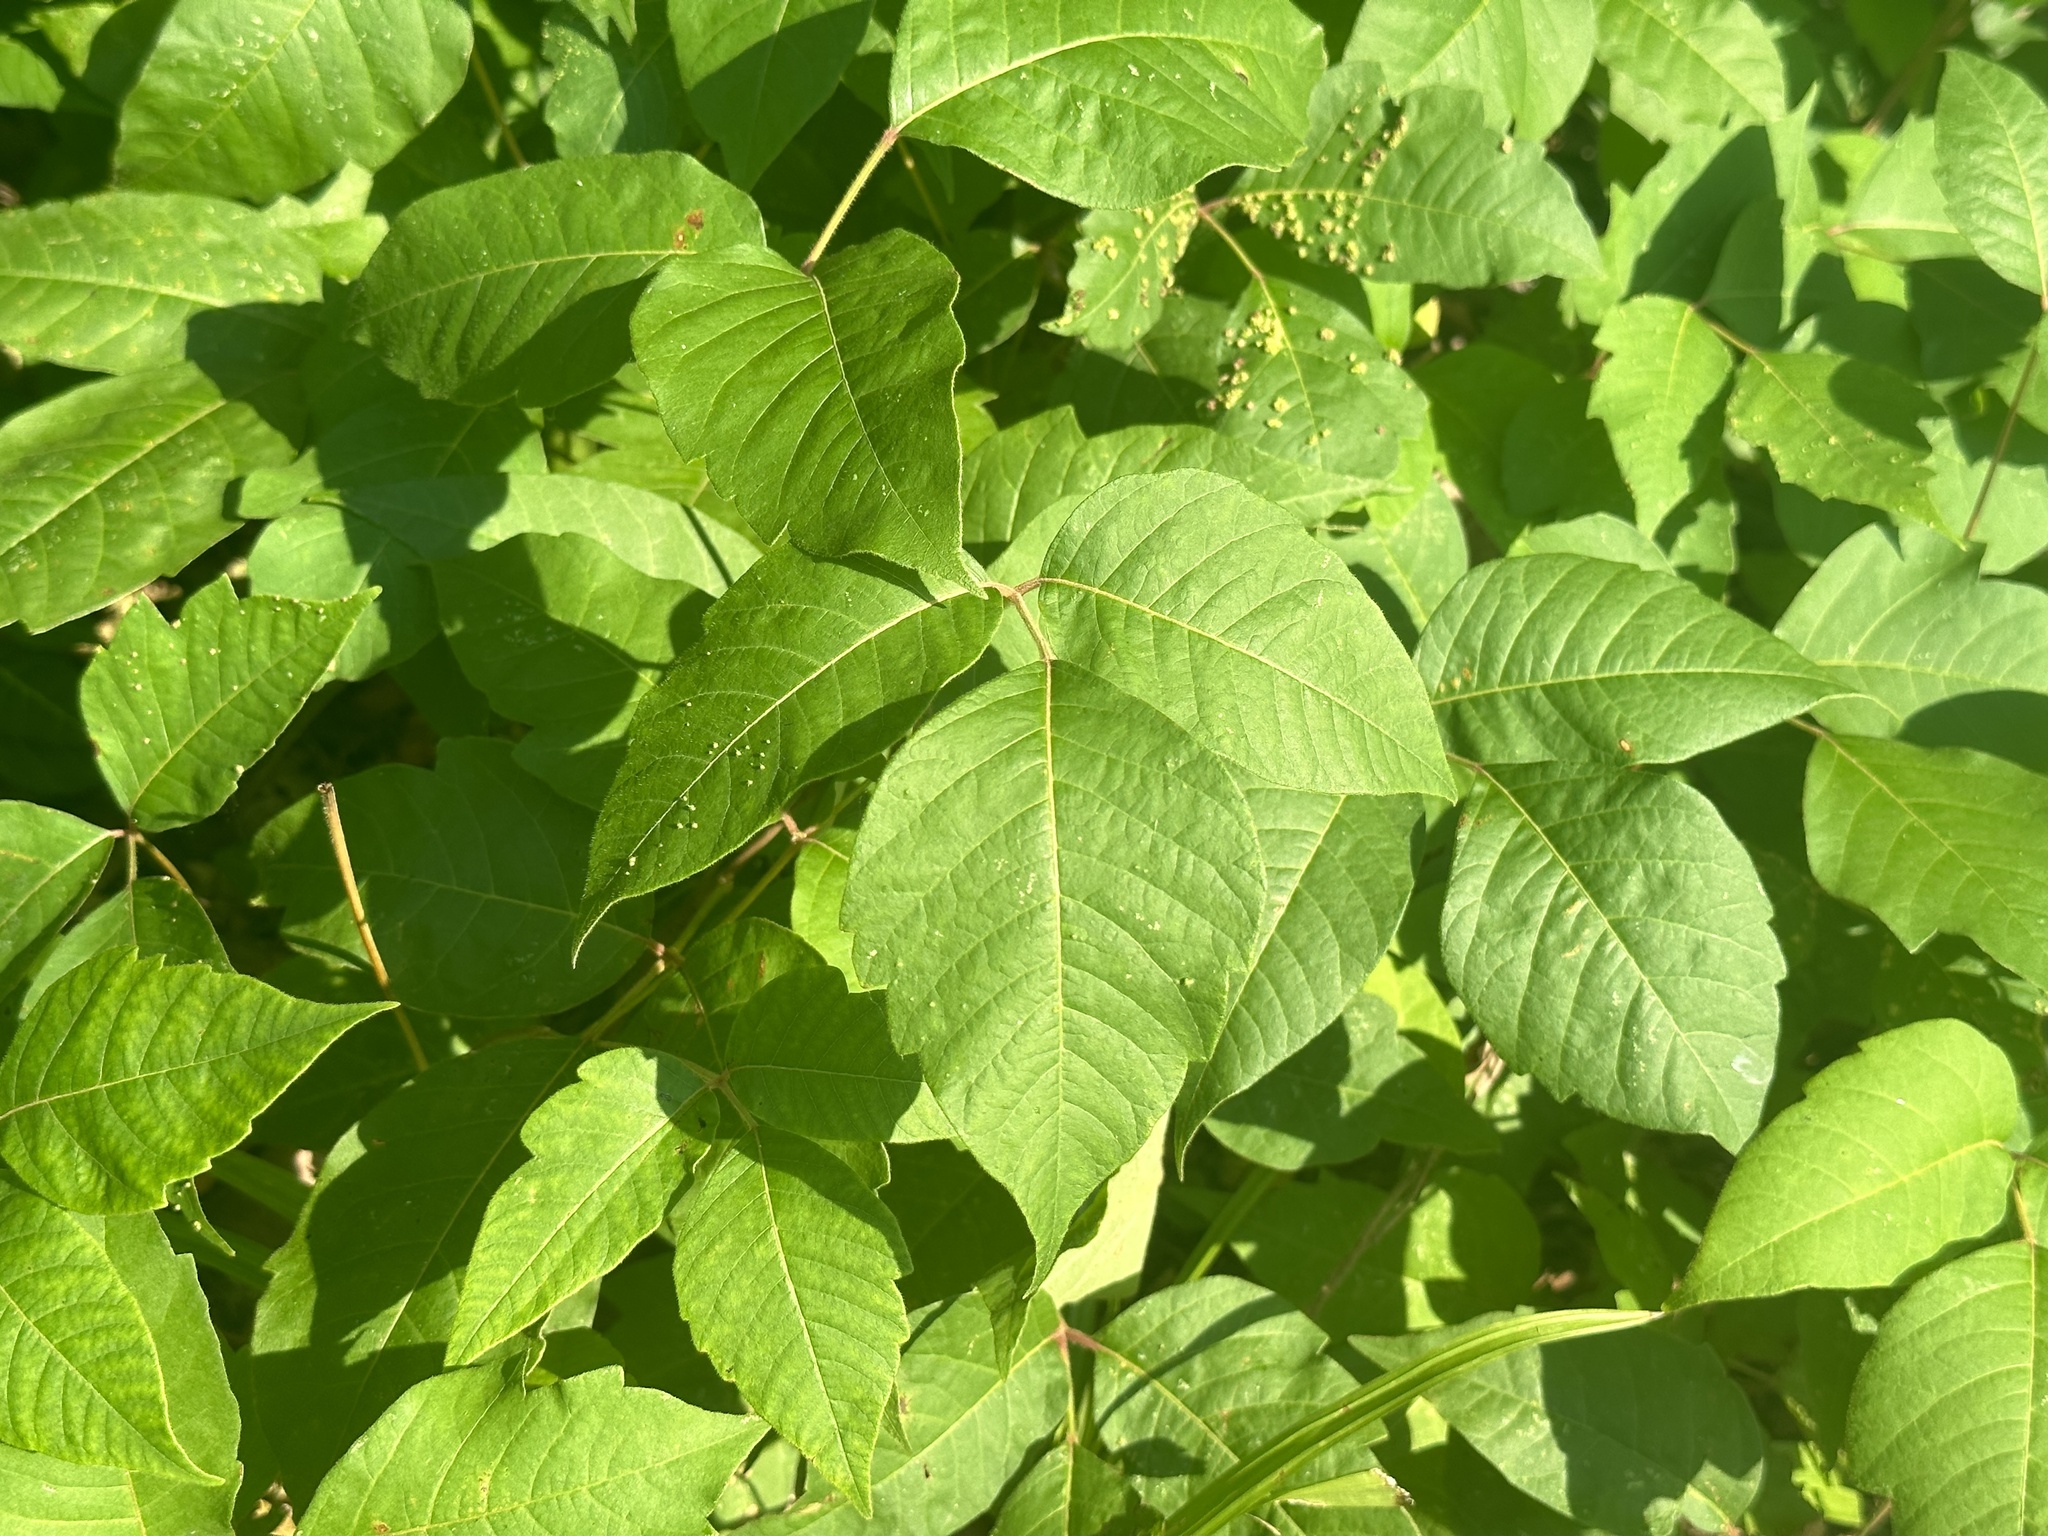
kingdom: Plantae
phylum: Tracheophyta
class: Magnoliopsida
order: Sapindales
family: Anacardiaceae
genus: Toxicodendron
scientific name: Toxicodendron radicans
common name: Poison ivy
